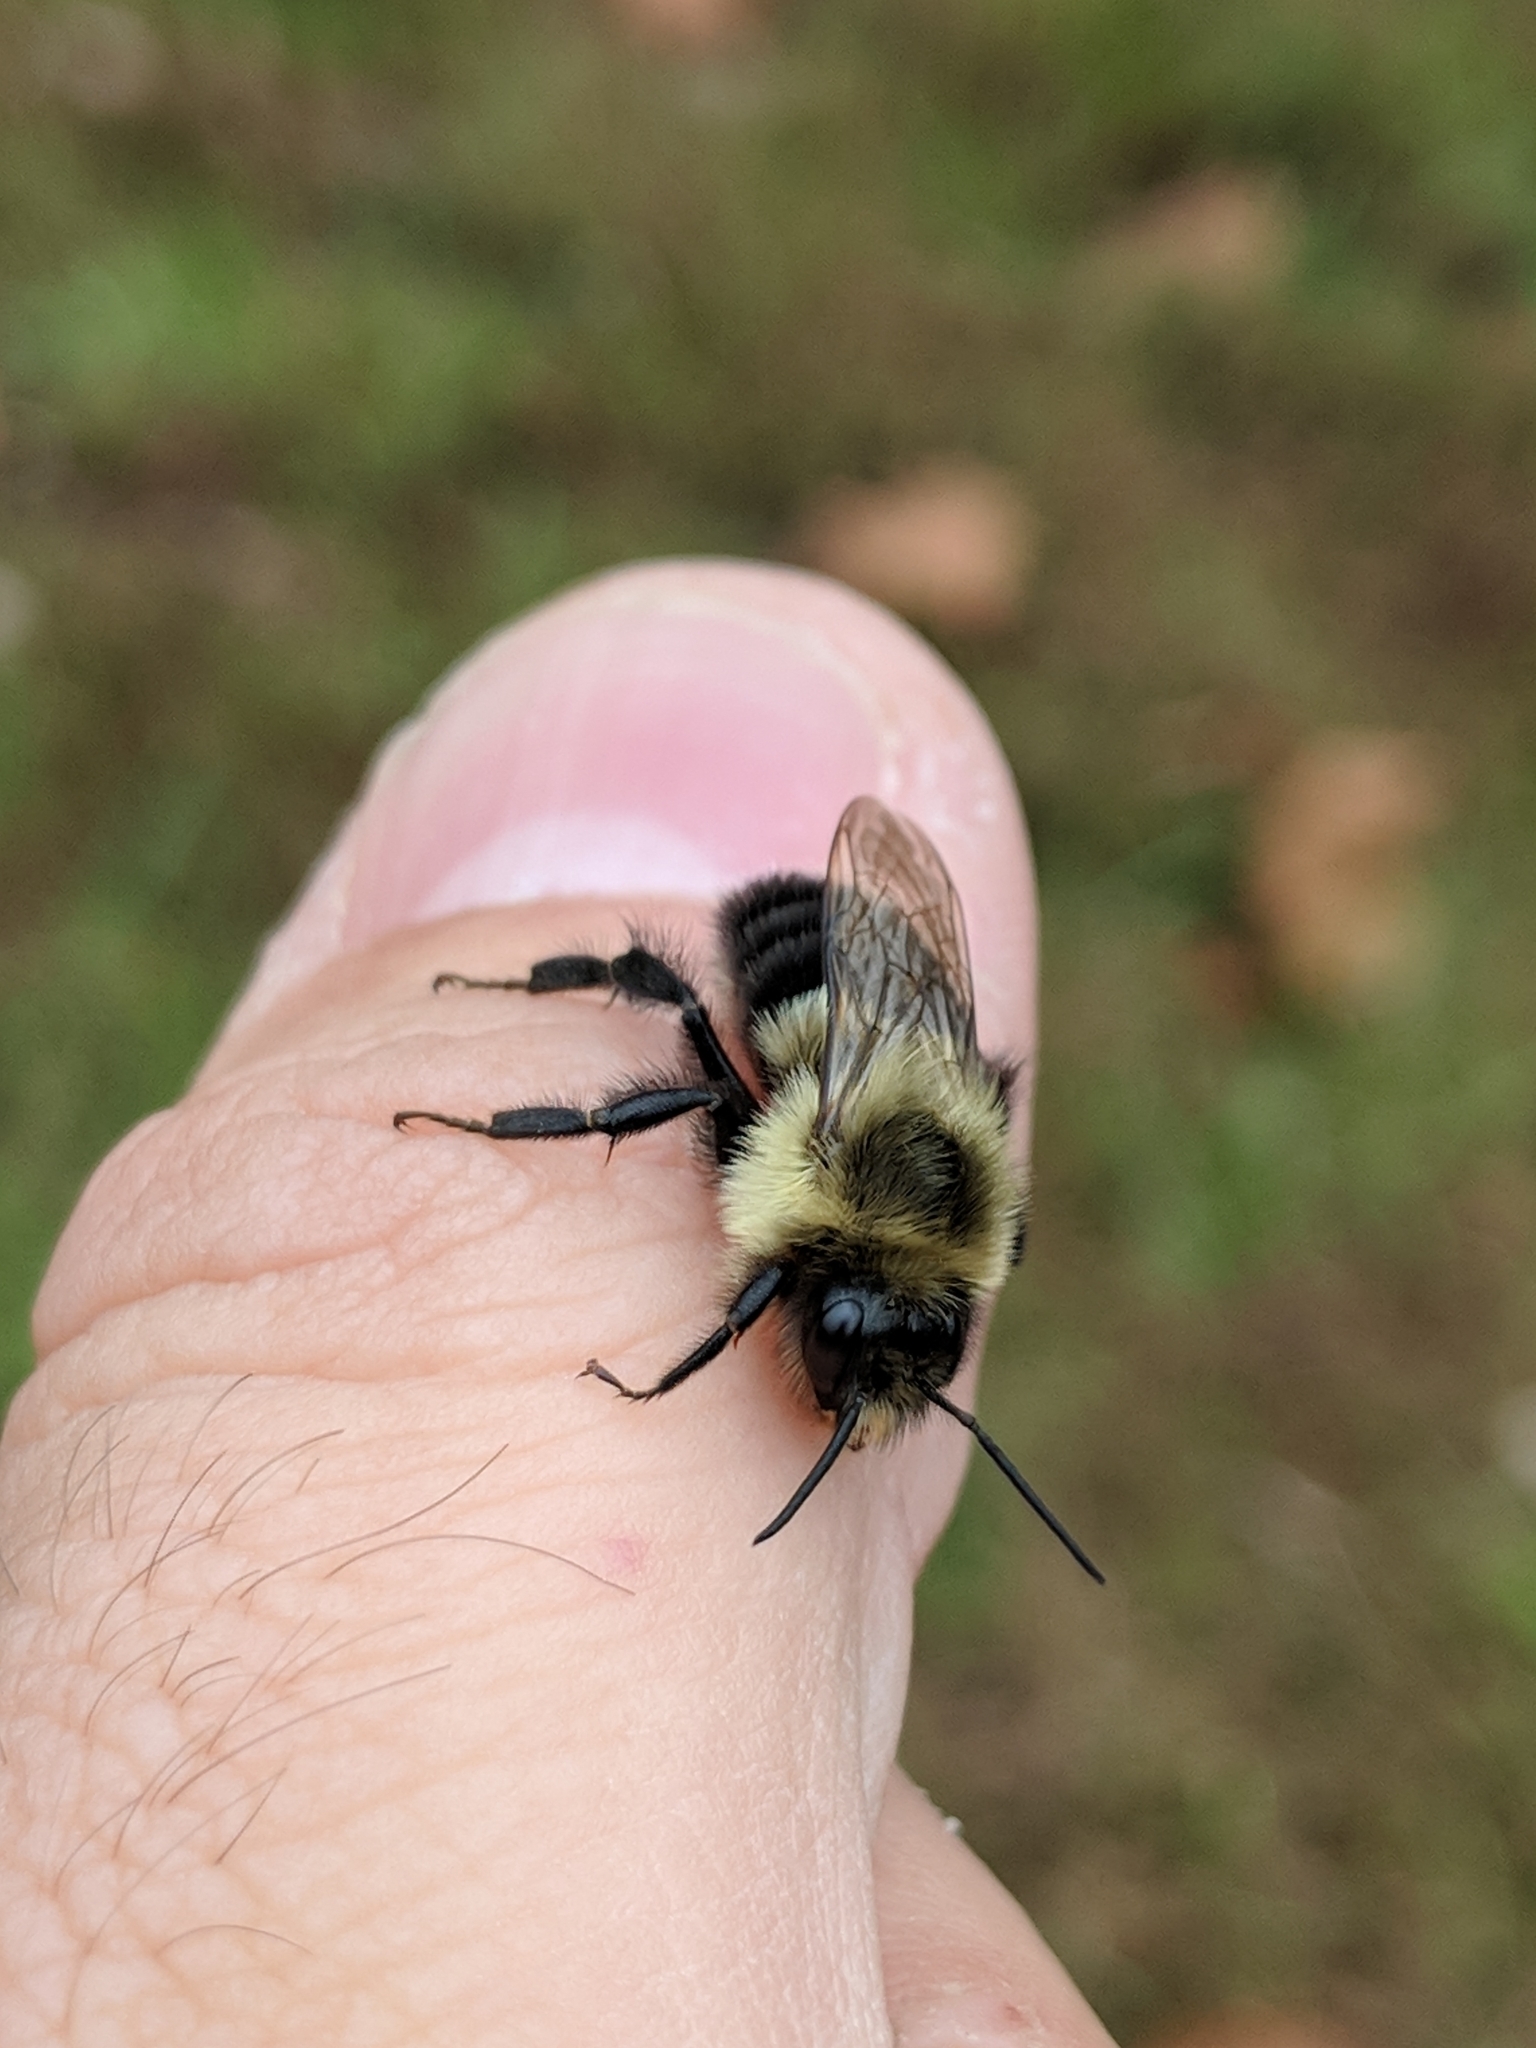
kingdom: Animalia
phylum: Arthropoda
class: Insecta
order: Hymenoptera
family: Apidae
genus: Bombus
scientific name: Bombus impatiens
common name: Common eastern bumble bee
